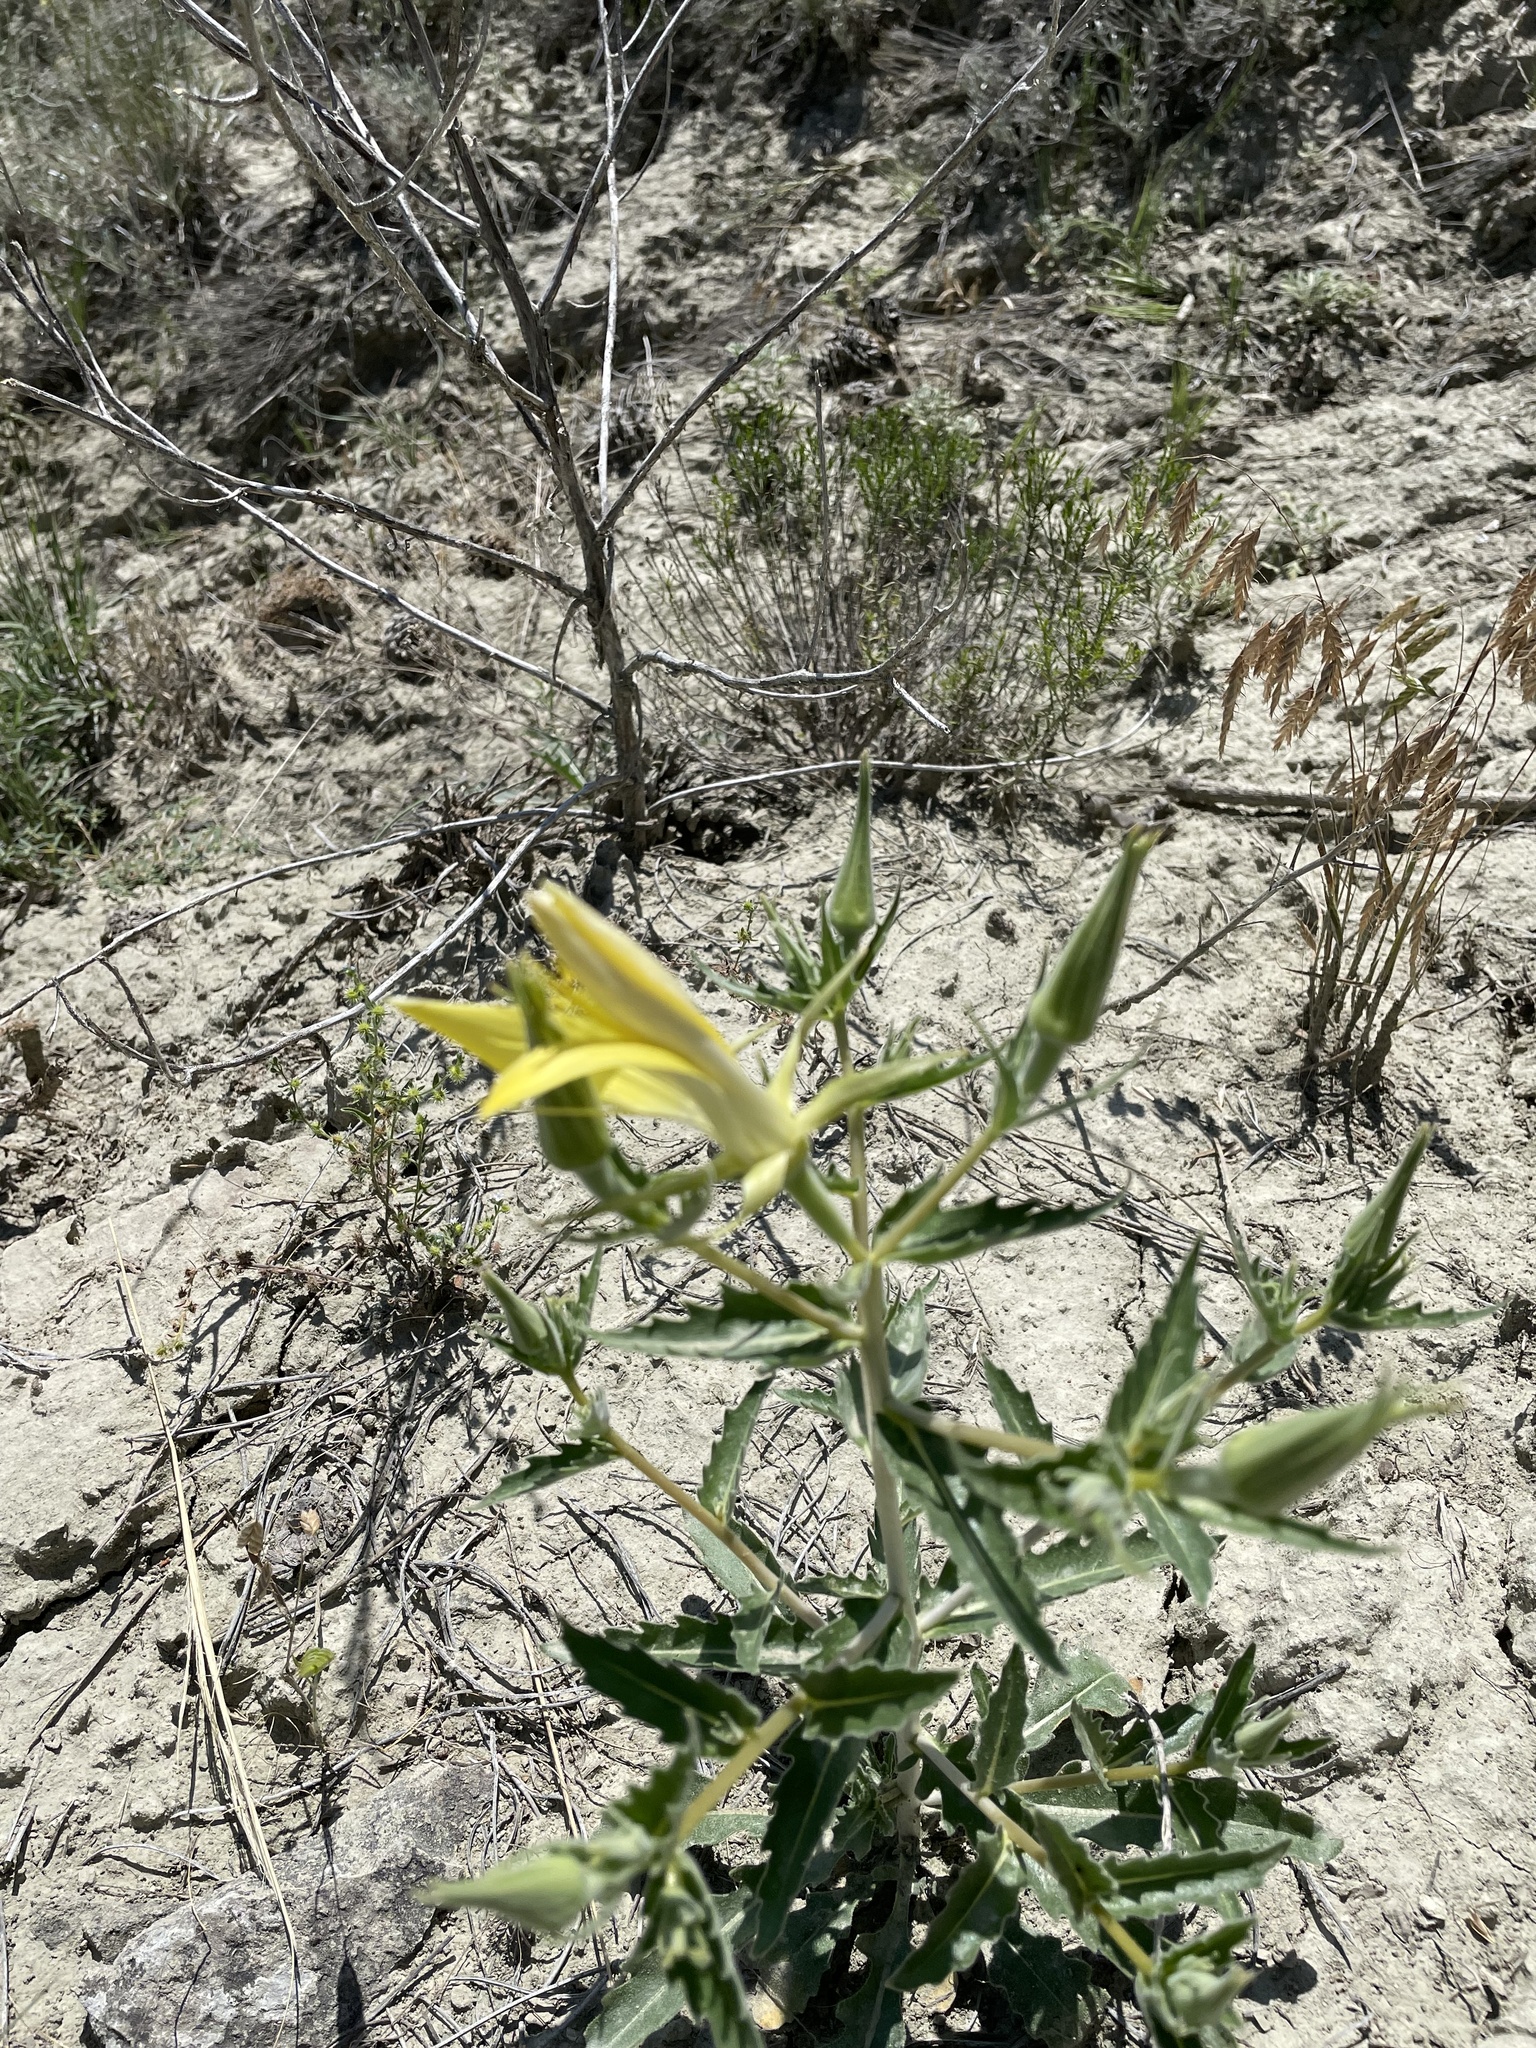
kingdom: Plantae
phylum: Tracheophyta
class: Magnoliopsida
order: Cornales
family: Loasaceae
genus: Mentzelia
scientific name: Mentzelia laevicaulis
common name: Smooth-stem blazingstar
